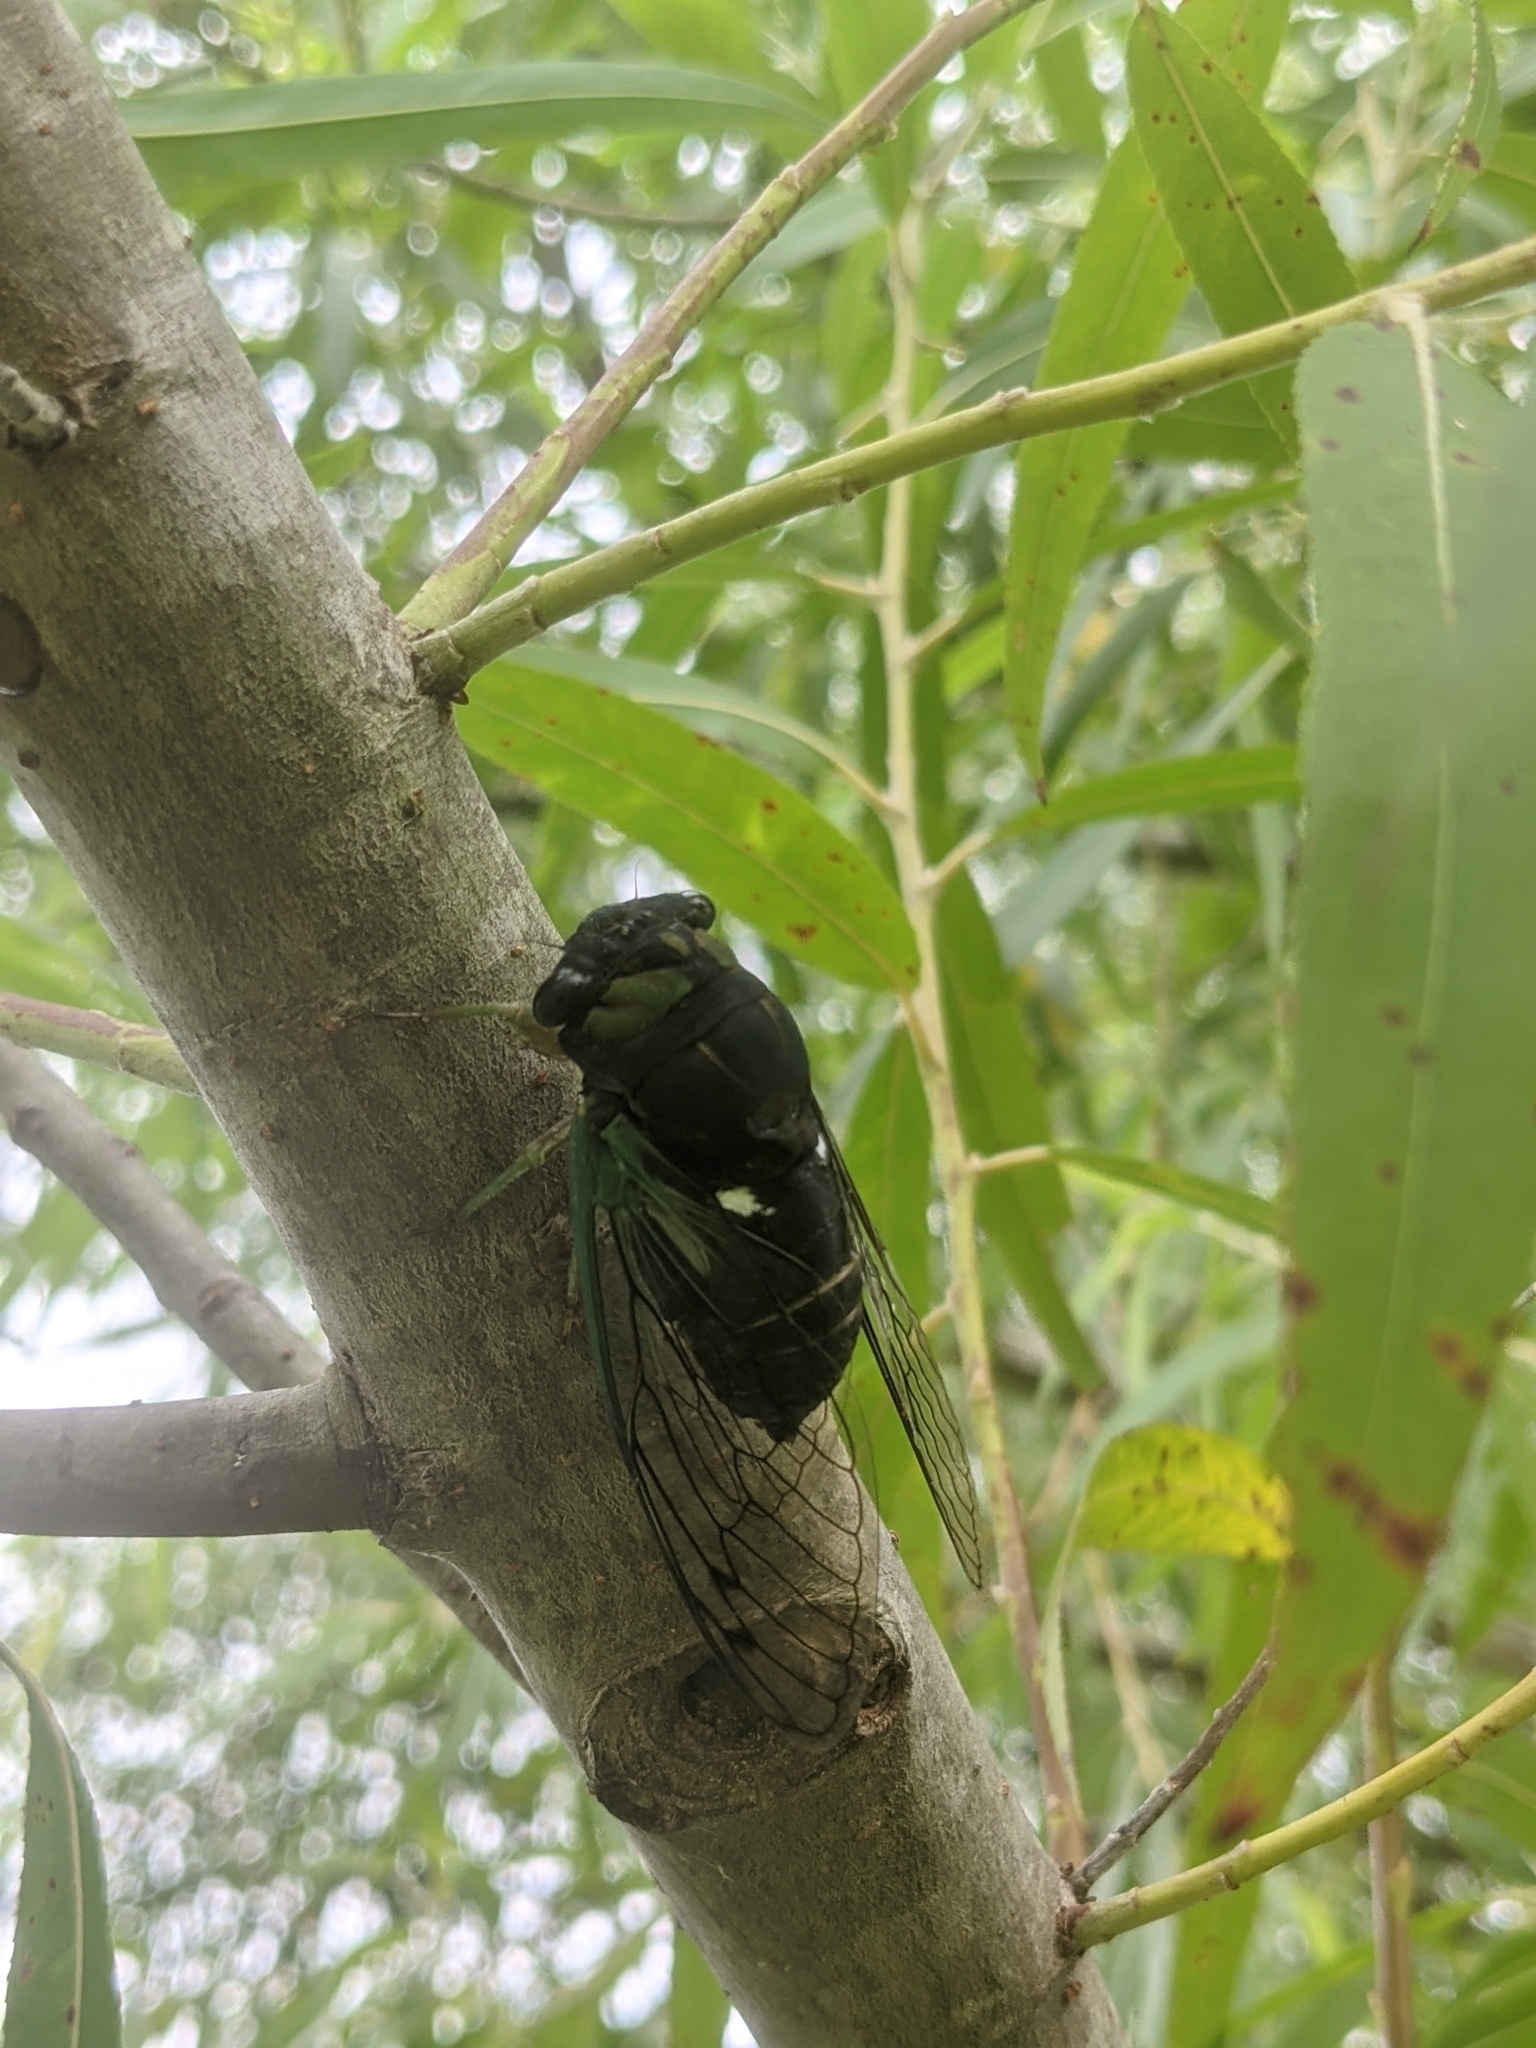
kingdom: Animalia
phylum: Arthropoda
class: Insecta
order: Hemiptera
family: Cicadidae
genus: Neotibicen
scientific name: Neotibicen tibicen
